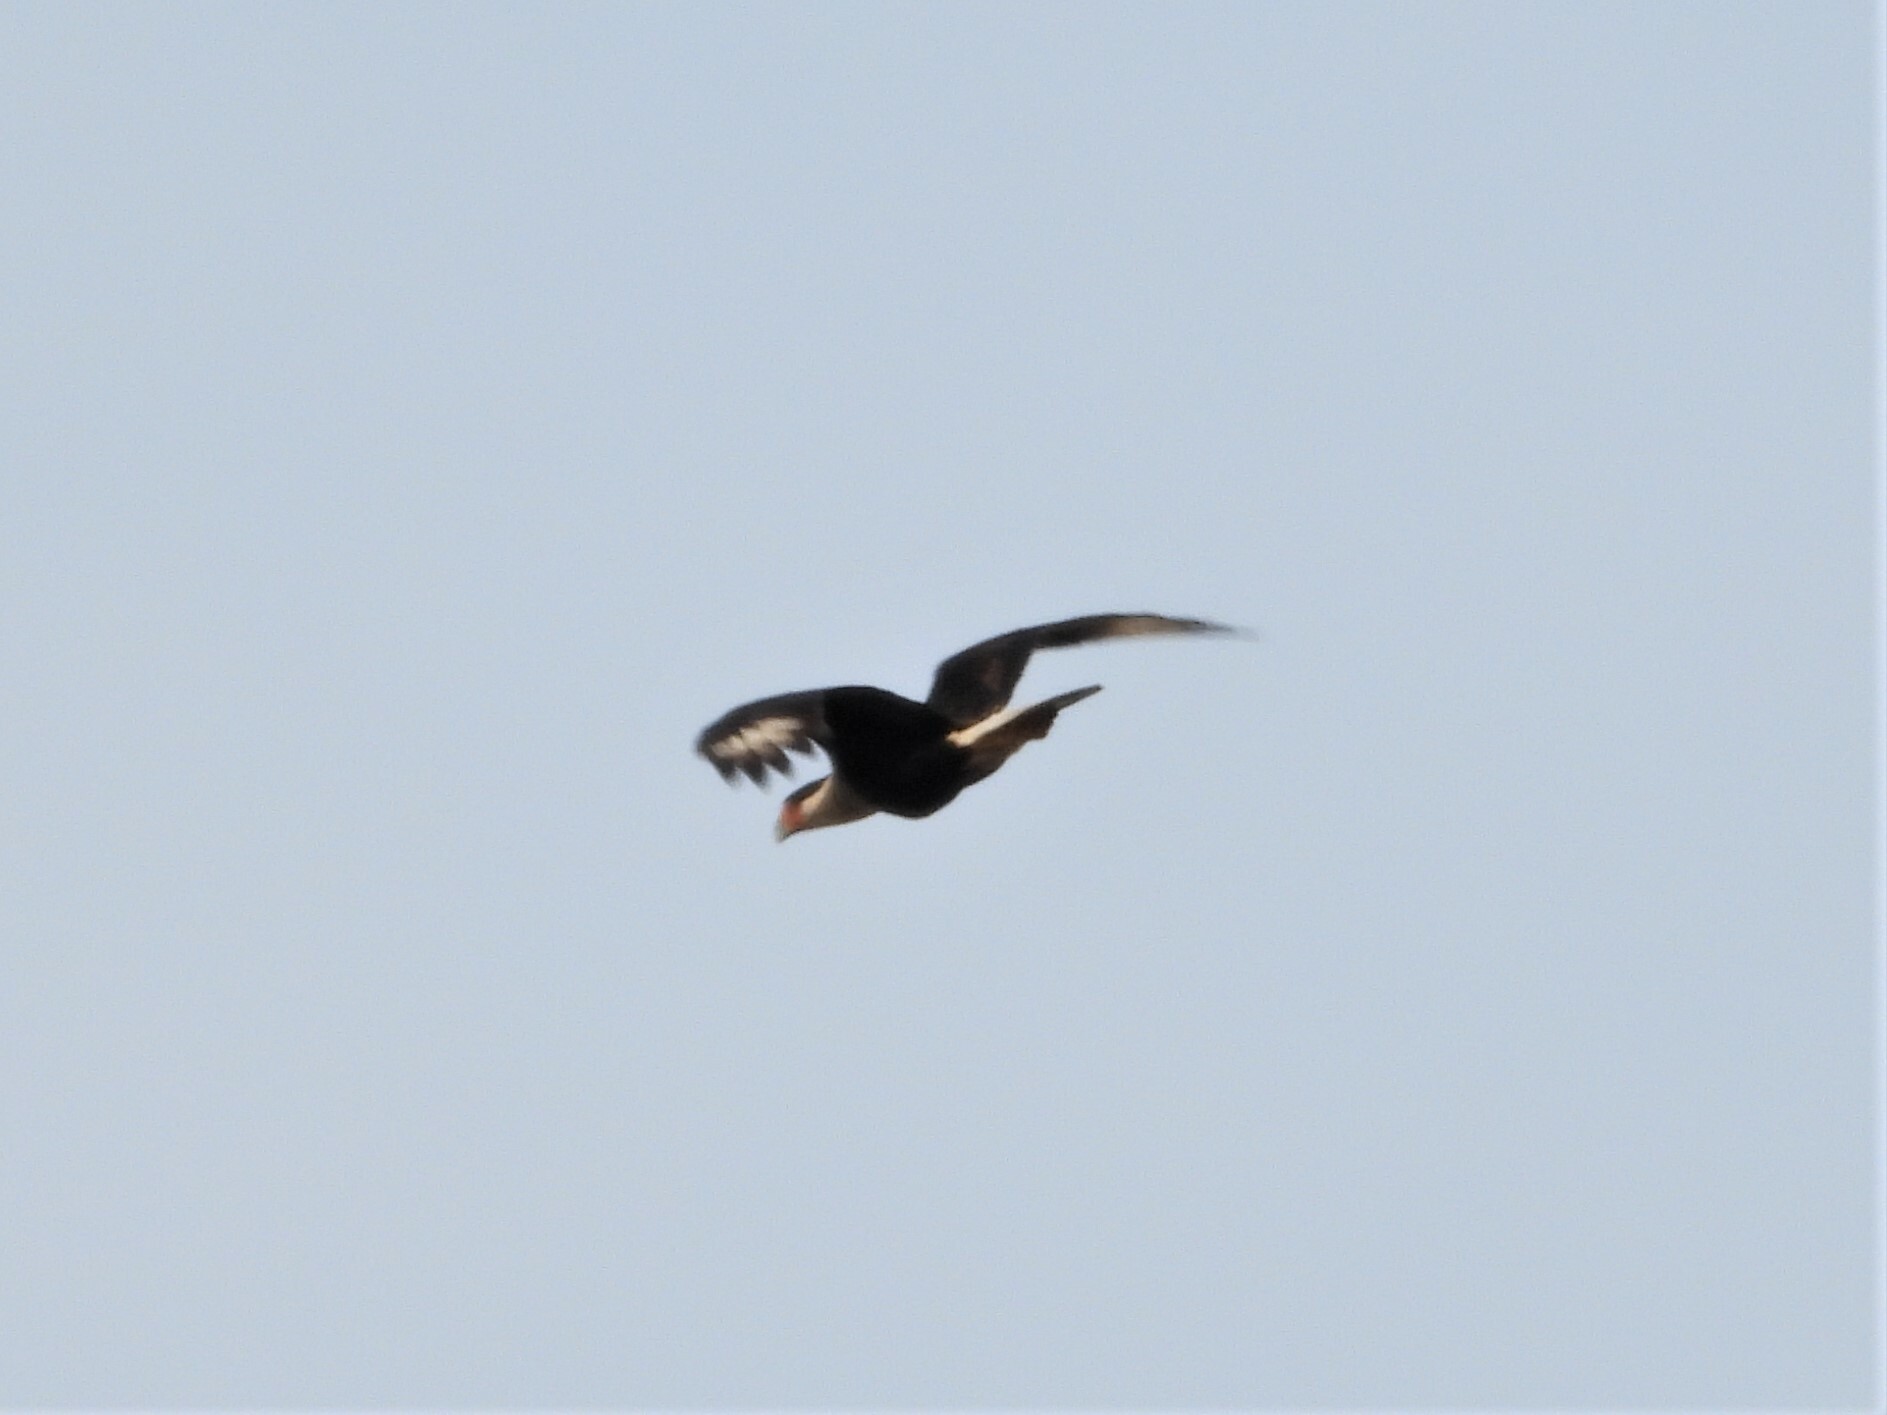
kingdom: Animalia
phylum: Chordata
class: Aves
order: Falconiformes
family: Falconidae
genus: Caracara
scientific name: Caracara plancus
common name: Southern caracara
